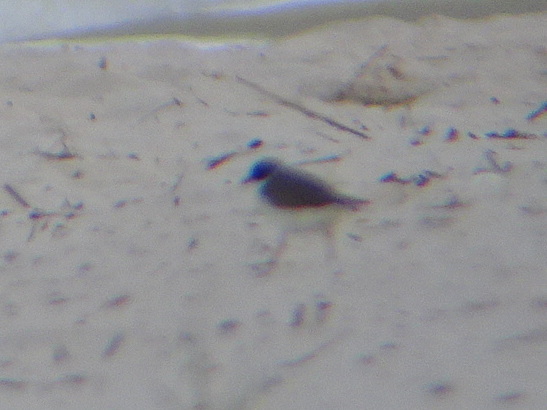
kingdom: Animalia
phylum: Chordata
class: Aves
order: Charadriiformes
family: Charadriidae
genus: Charadrius
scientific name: Charadrius semipalmatus
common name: Semipalmated plover
